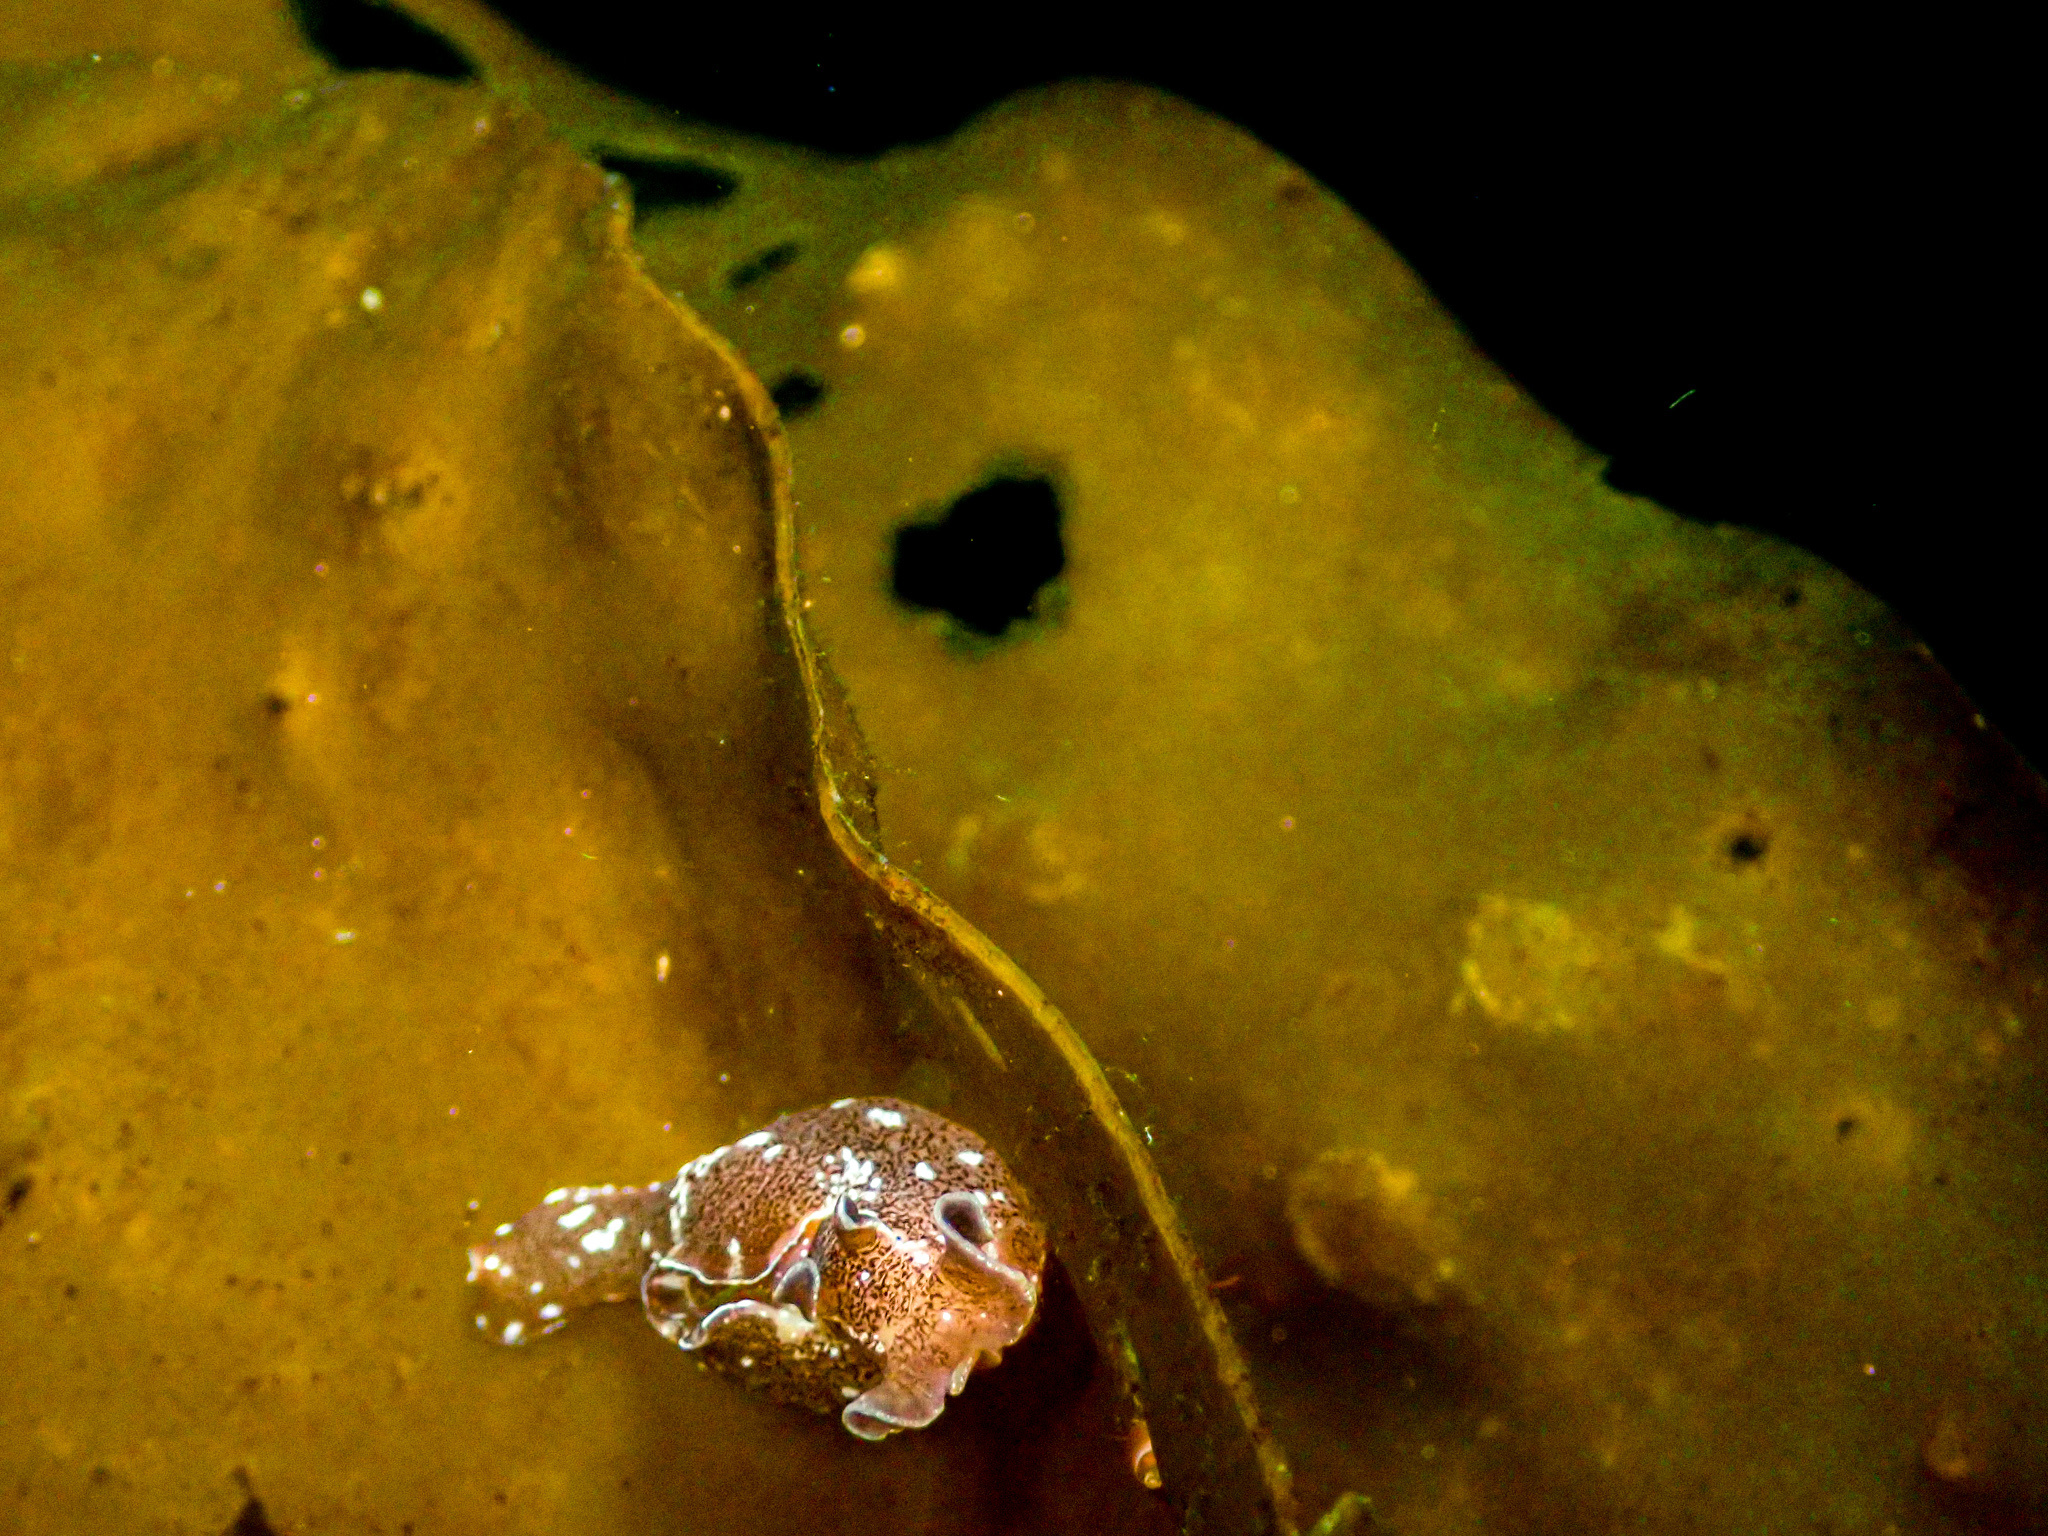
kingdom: Animalia
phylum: Mollusca
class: Gastropoda
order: Aplysiida
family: Aplysiidae
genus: Aplysia
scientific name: Aplysia punctata
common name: Common sea hare
